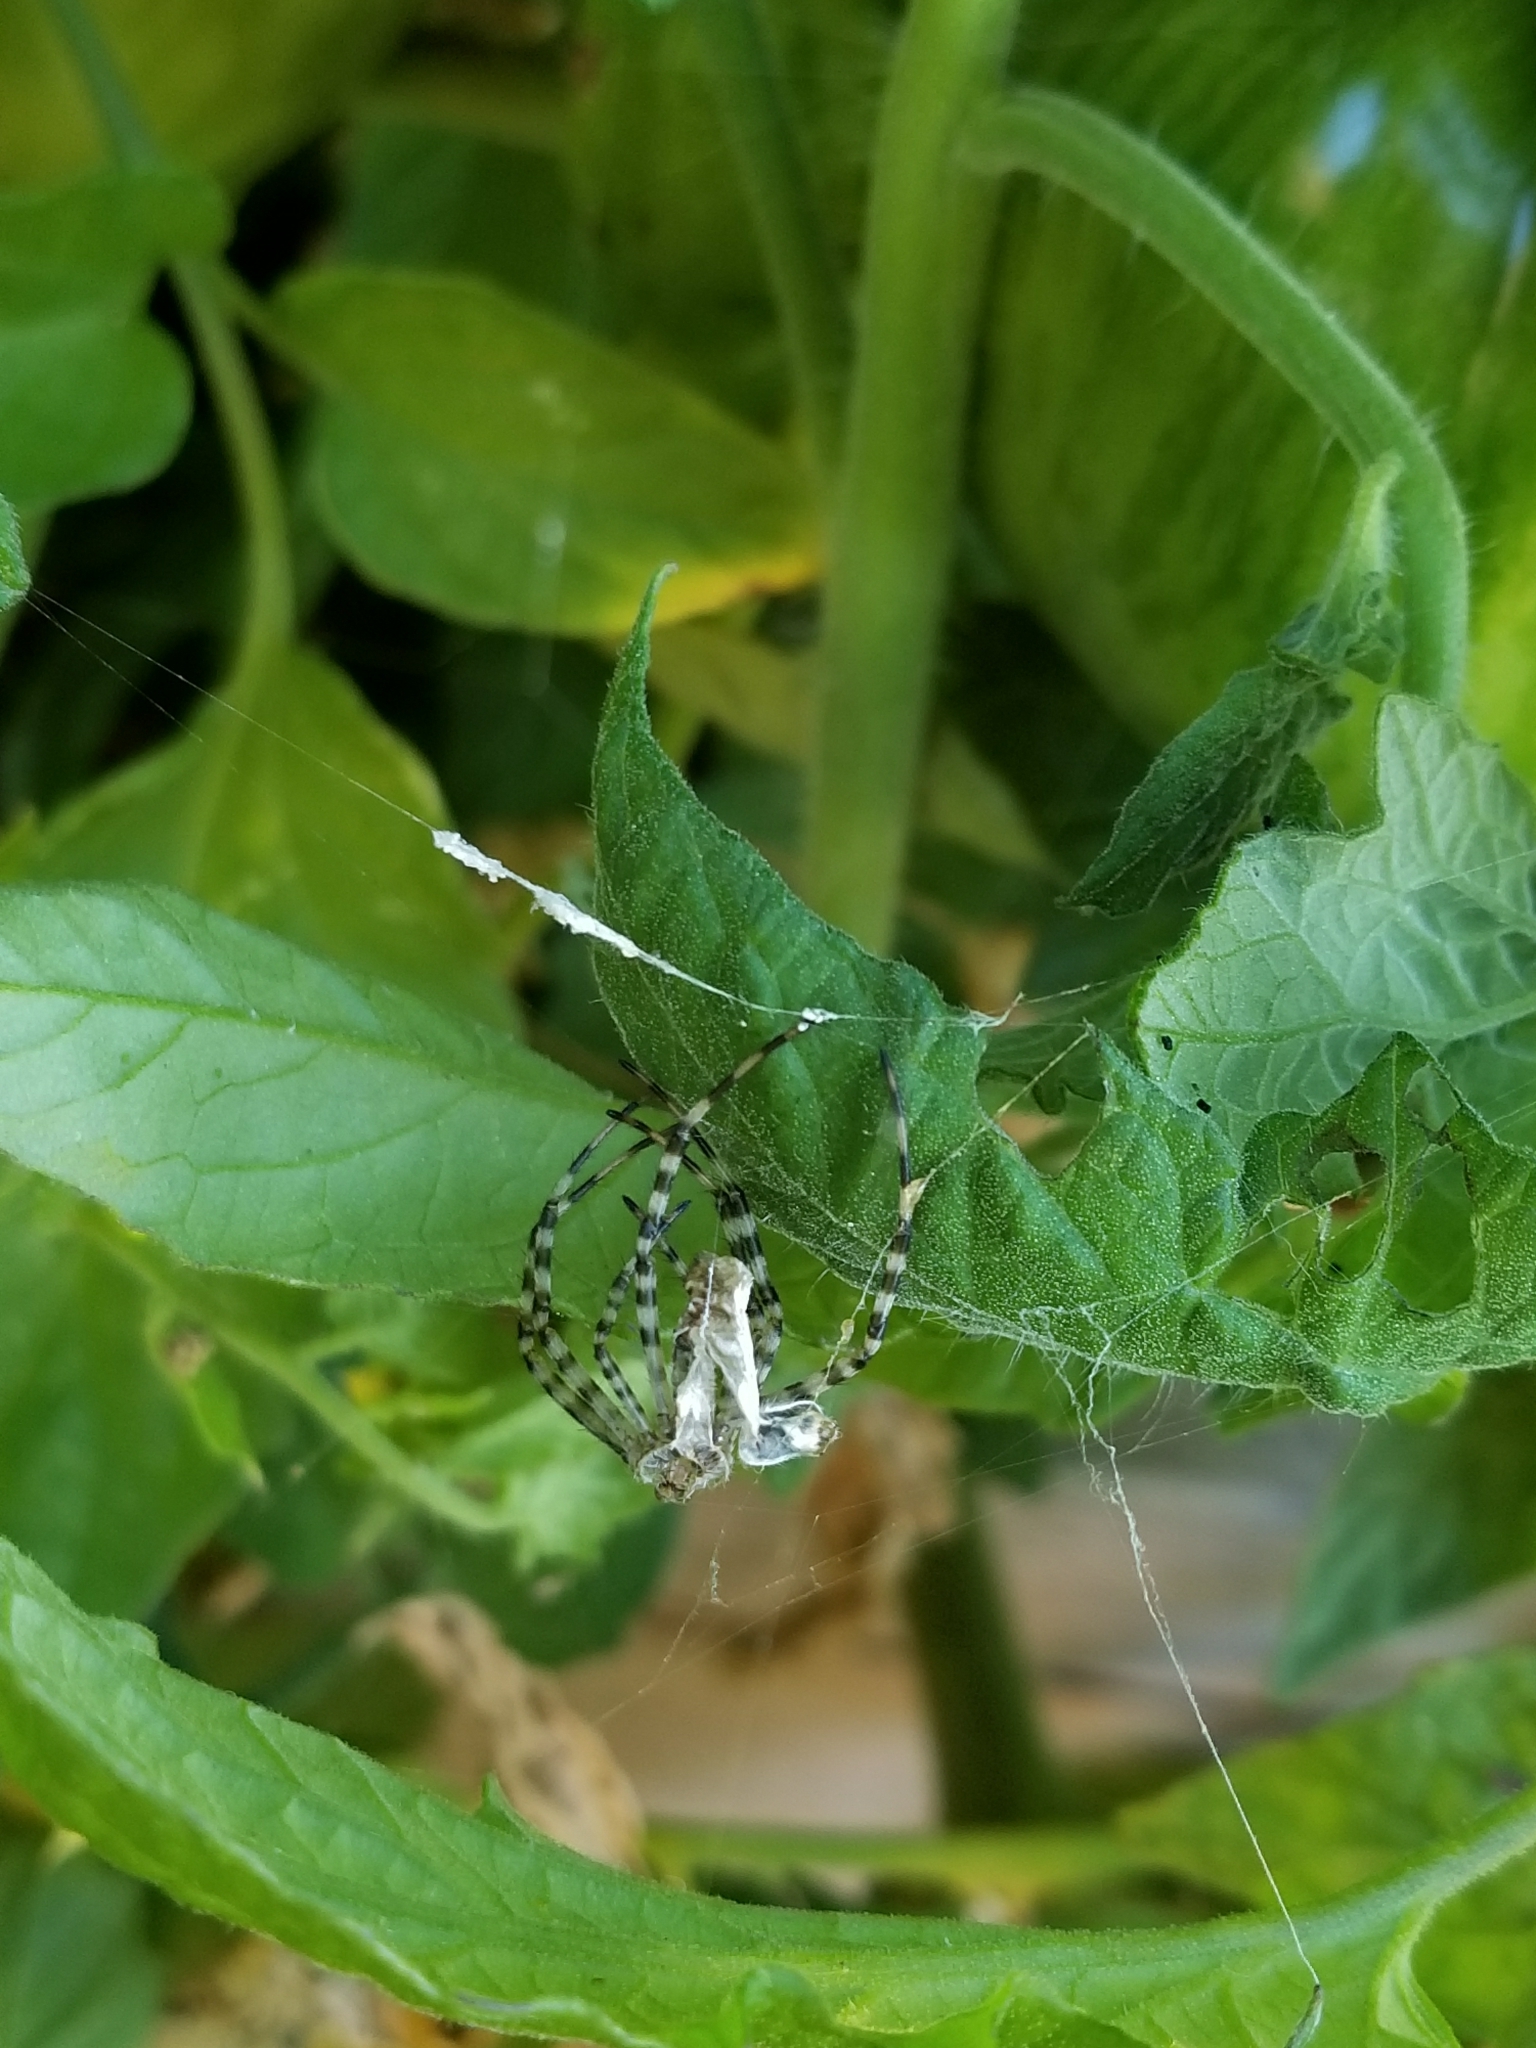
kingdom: Animalia
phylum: Arthropoda
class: Arachnida
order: Araneae
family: Araneidae
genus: Argiope
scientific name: Argiope trifasciata
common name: Banded garden spider
